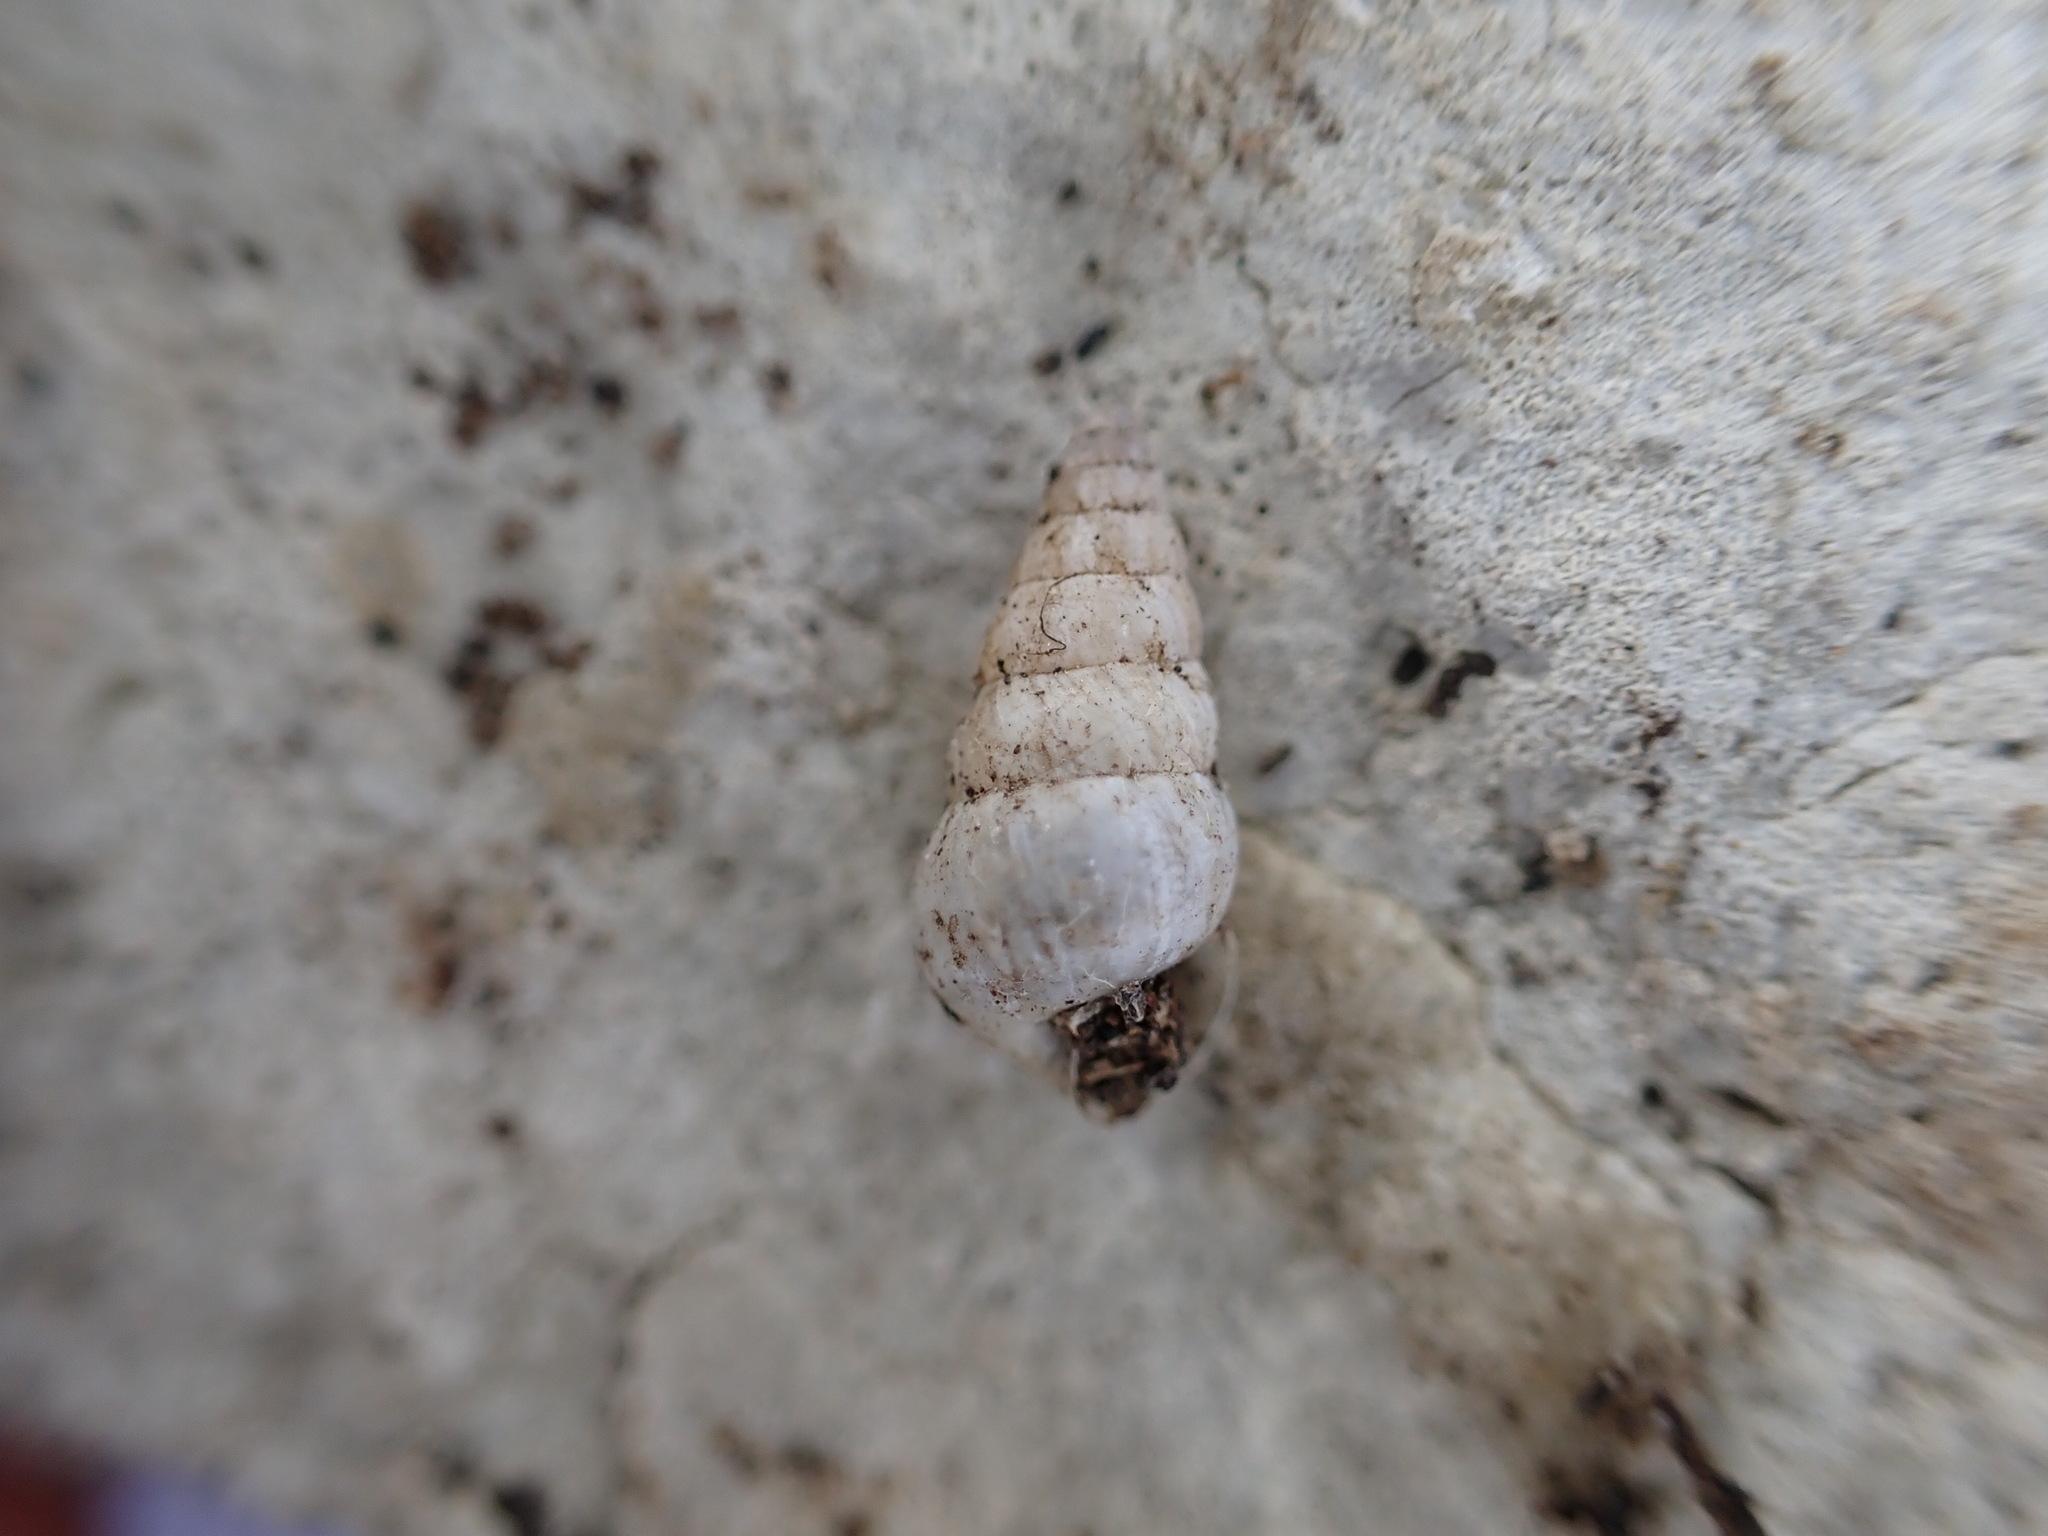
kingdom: Animalia
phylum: Mollusca
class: Gastropoda
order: Stylommatophora
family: Geomitridae
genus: Cochlicella
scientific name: Cochlicella acuta
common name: Pointed snail
